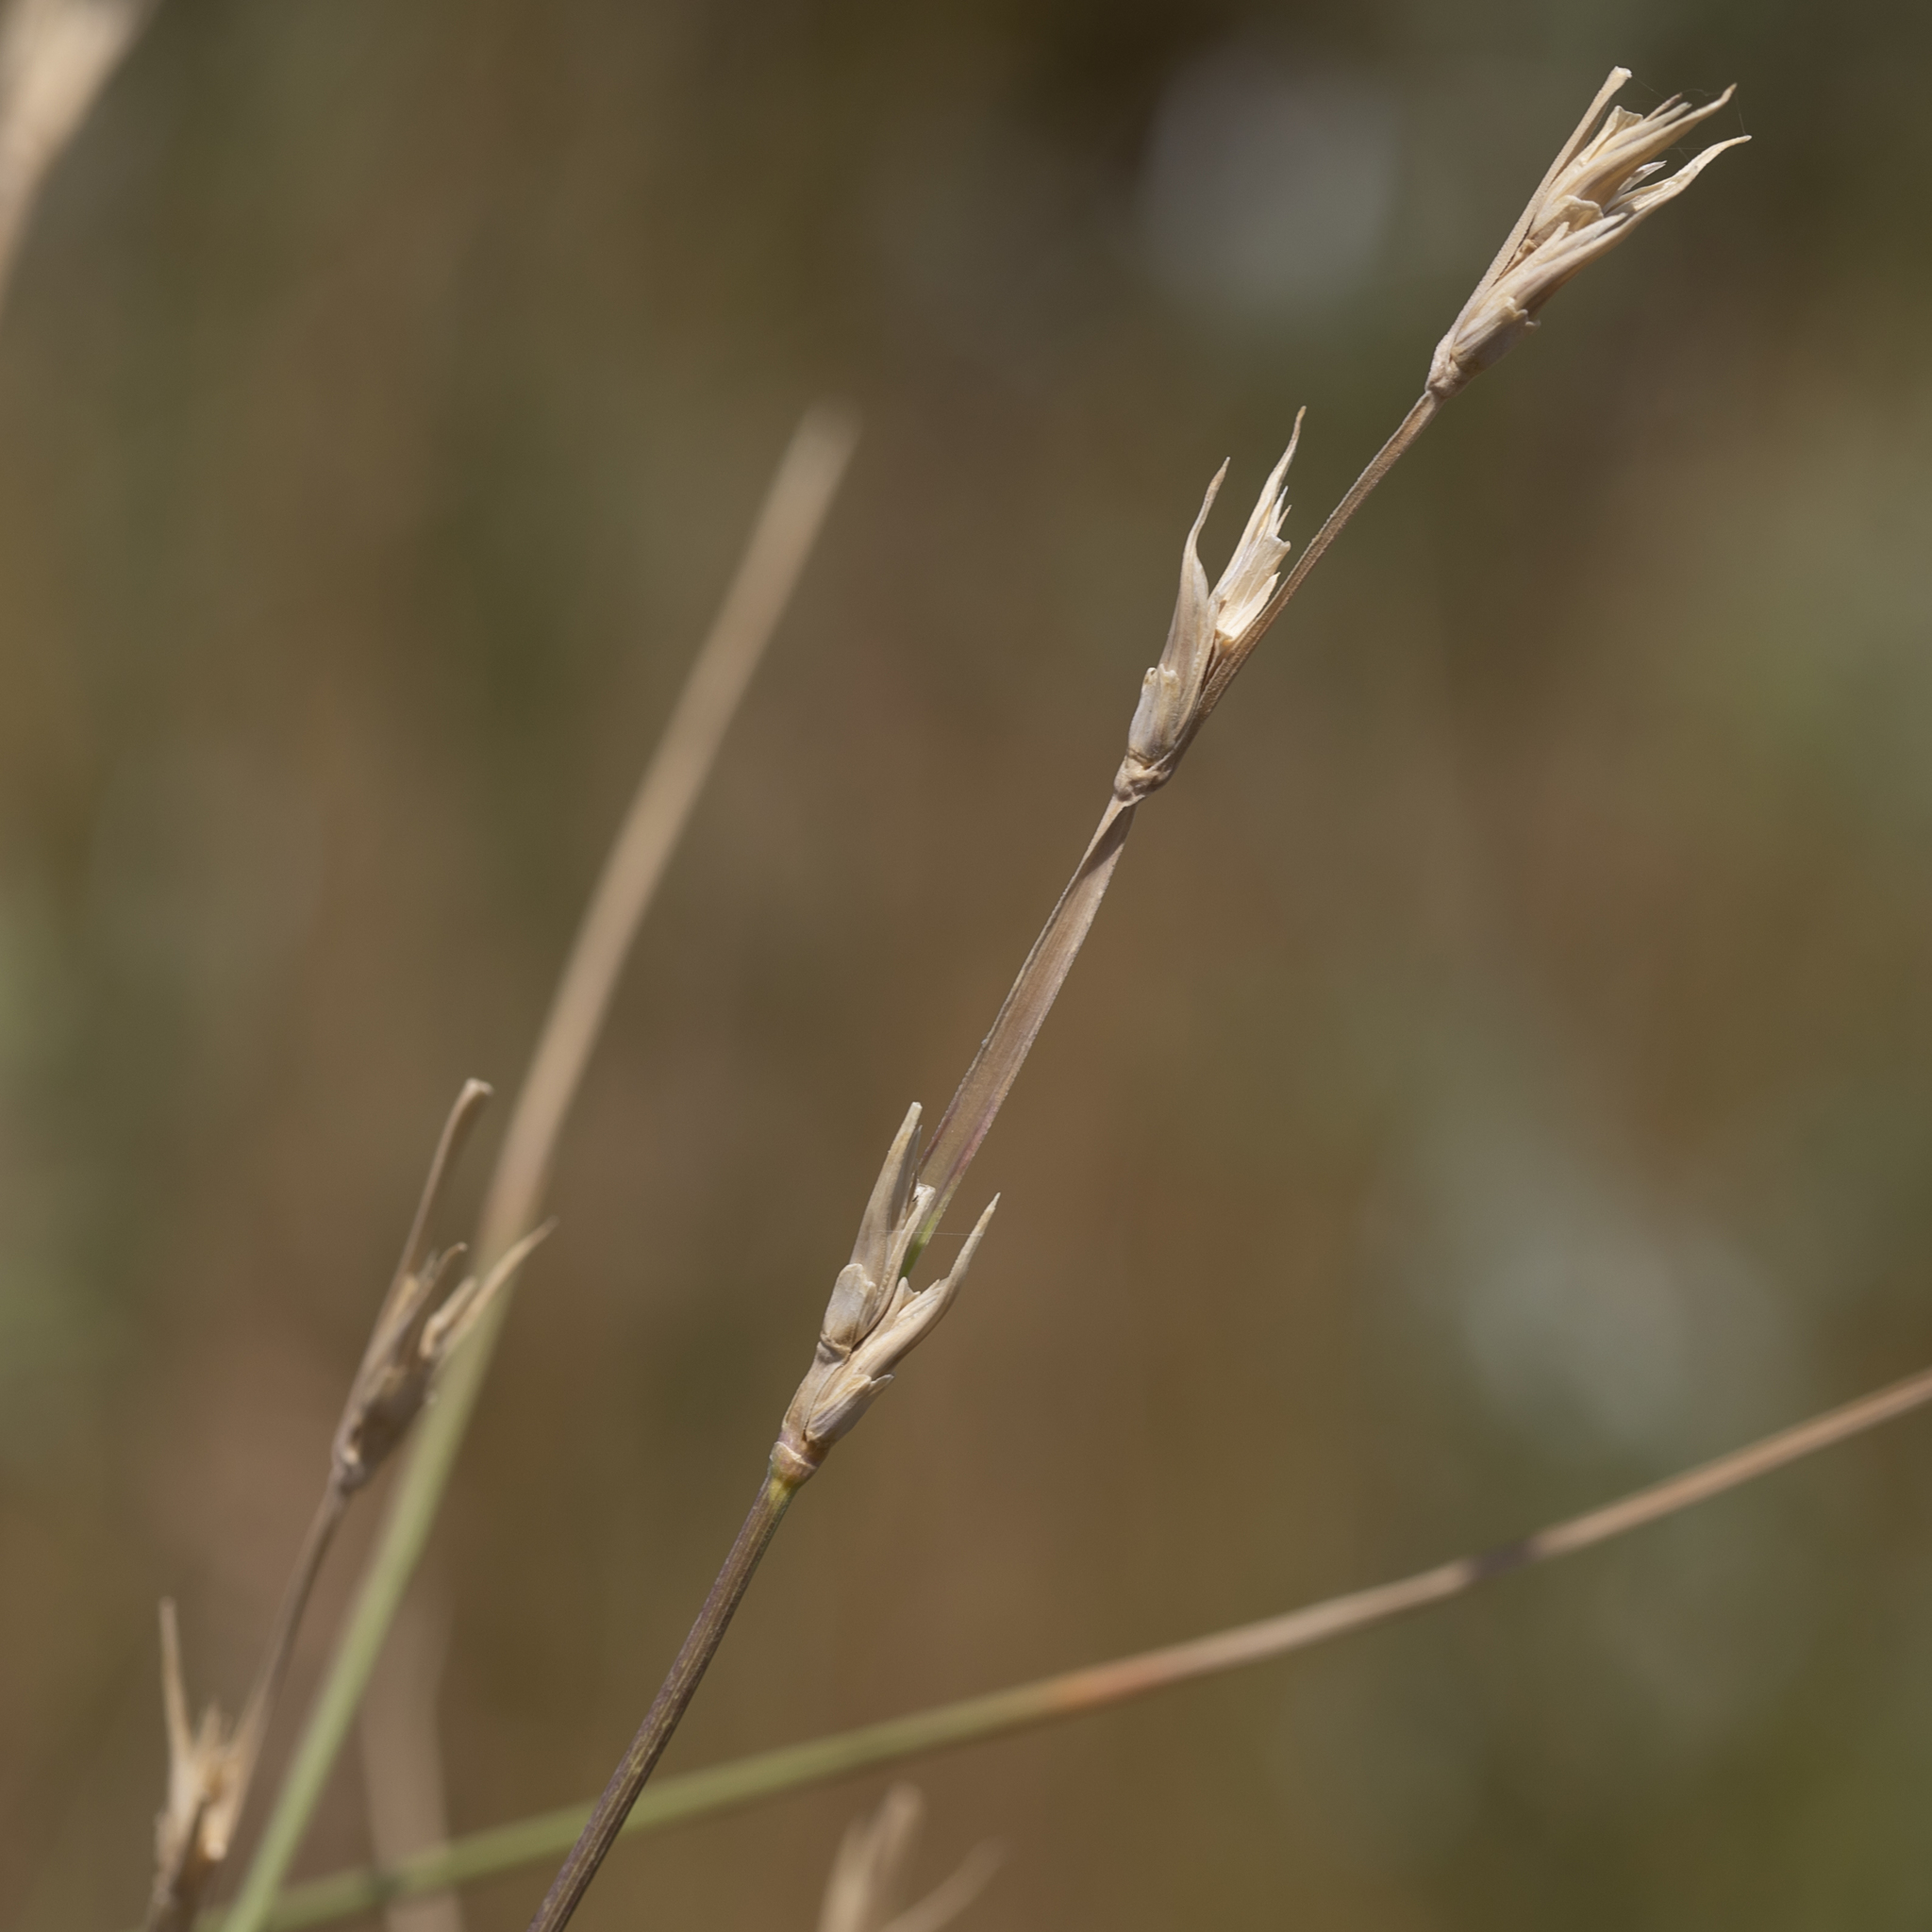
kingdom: Plantae
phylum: Tracheophyta
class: Liliopsida
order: Poales
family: Poaceae
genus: Uranthoecium
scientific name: Uranthoecium truncatum
